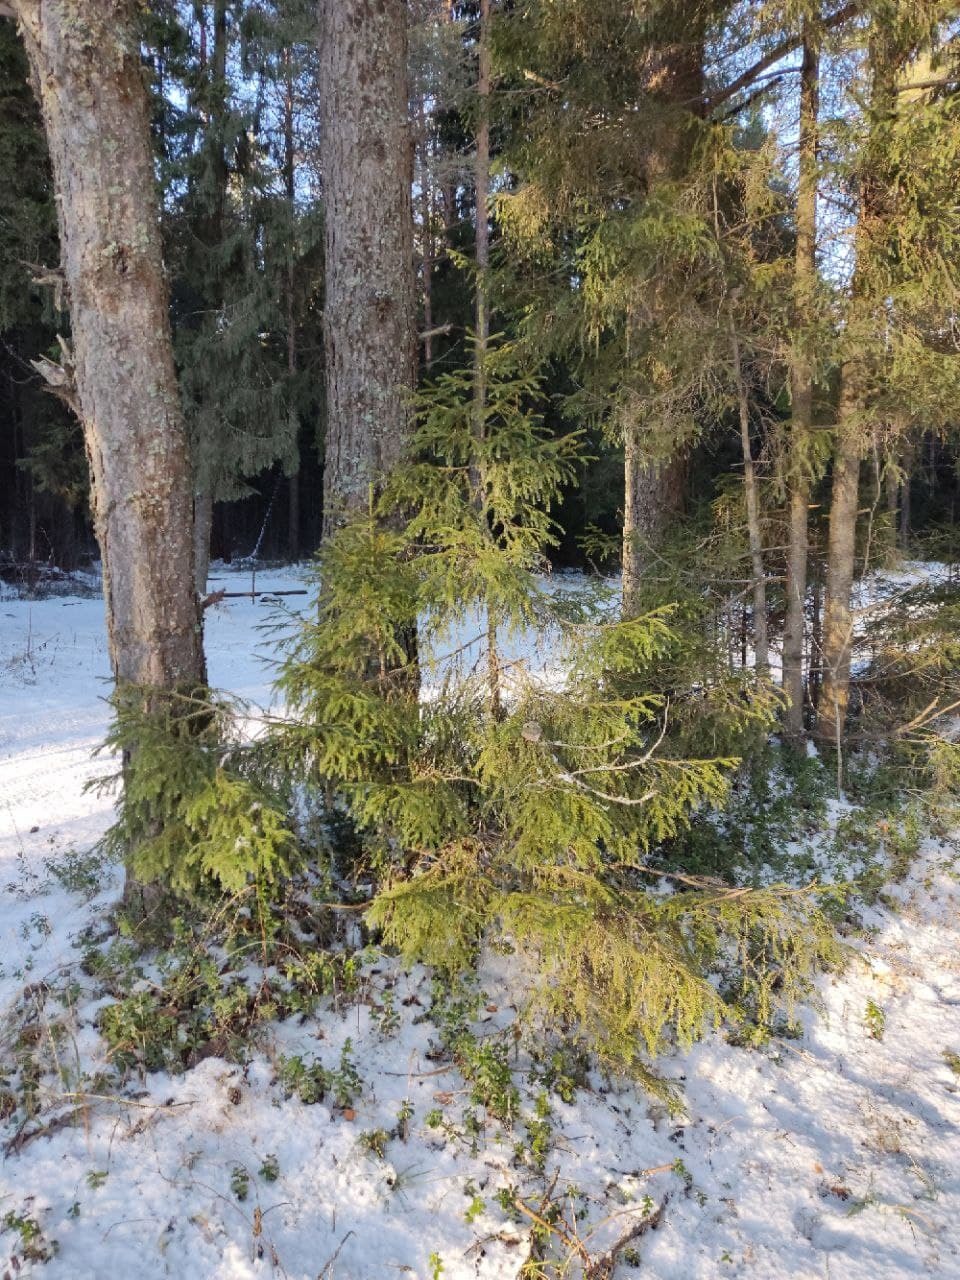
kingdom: Plantae
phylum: Tracheophyta
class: Pinopsida
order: Pinales
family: Pinaceae
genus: Picea
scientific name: Picea
